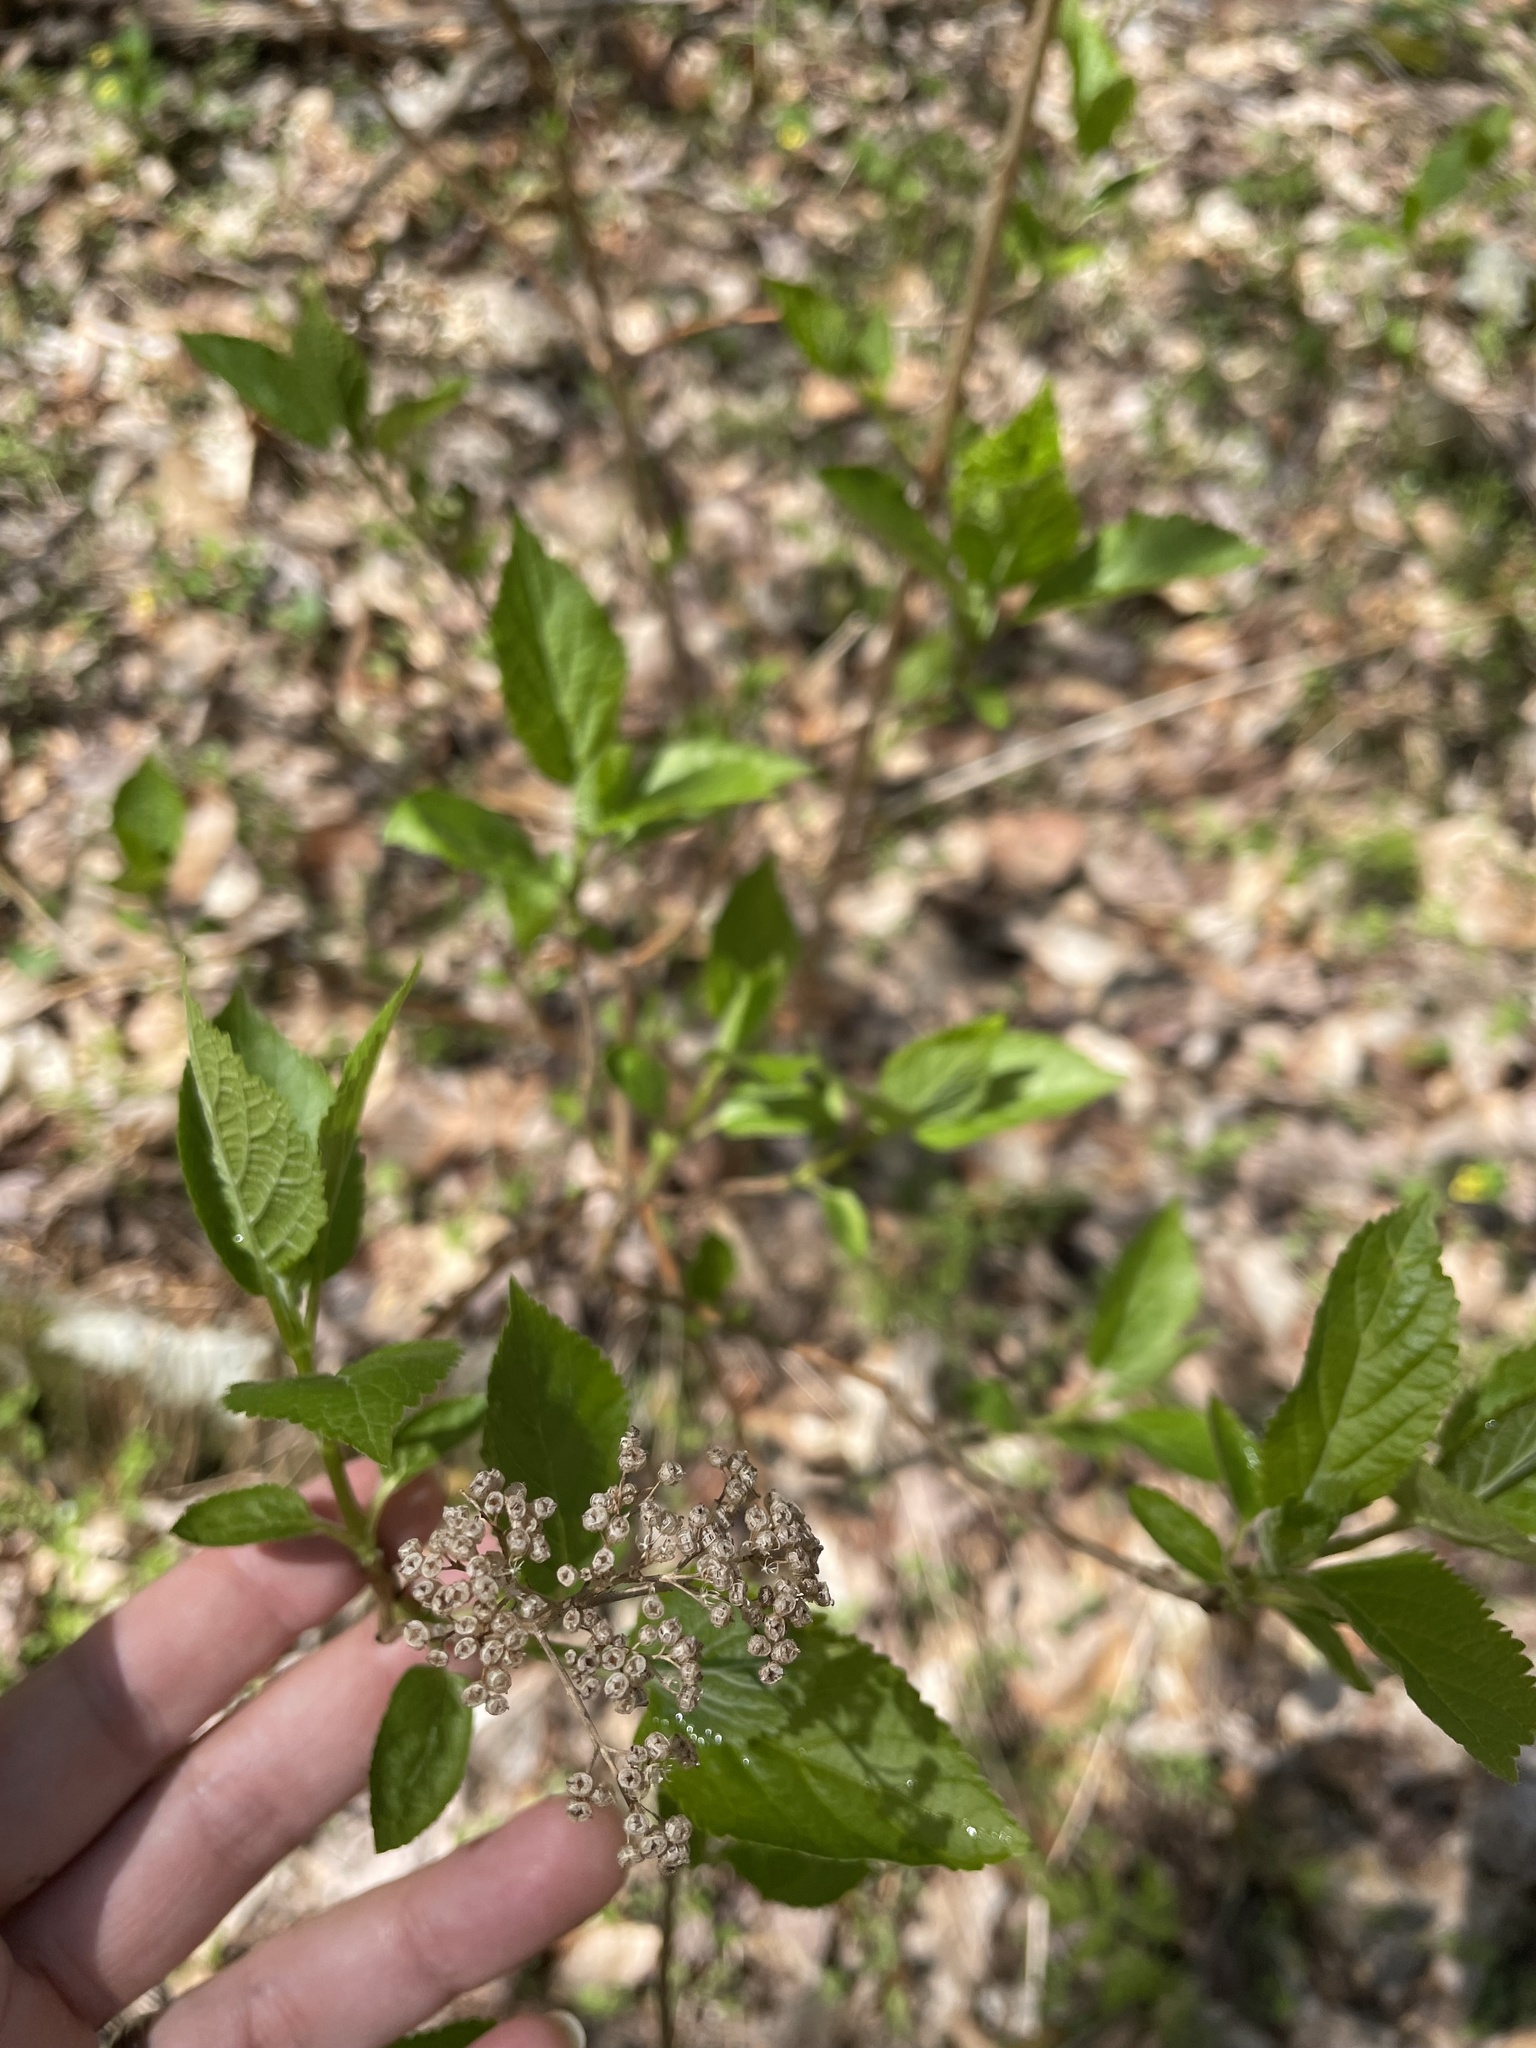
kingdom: Plantae
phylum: Tracheophyta
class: Magnoliopsida
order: Cornales
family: Hydrangeaceae
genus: Hydrangea
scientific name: Hydrangea arborescens
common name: Sevenbark
